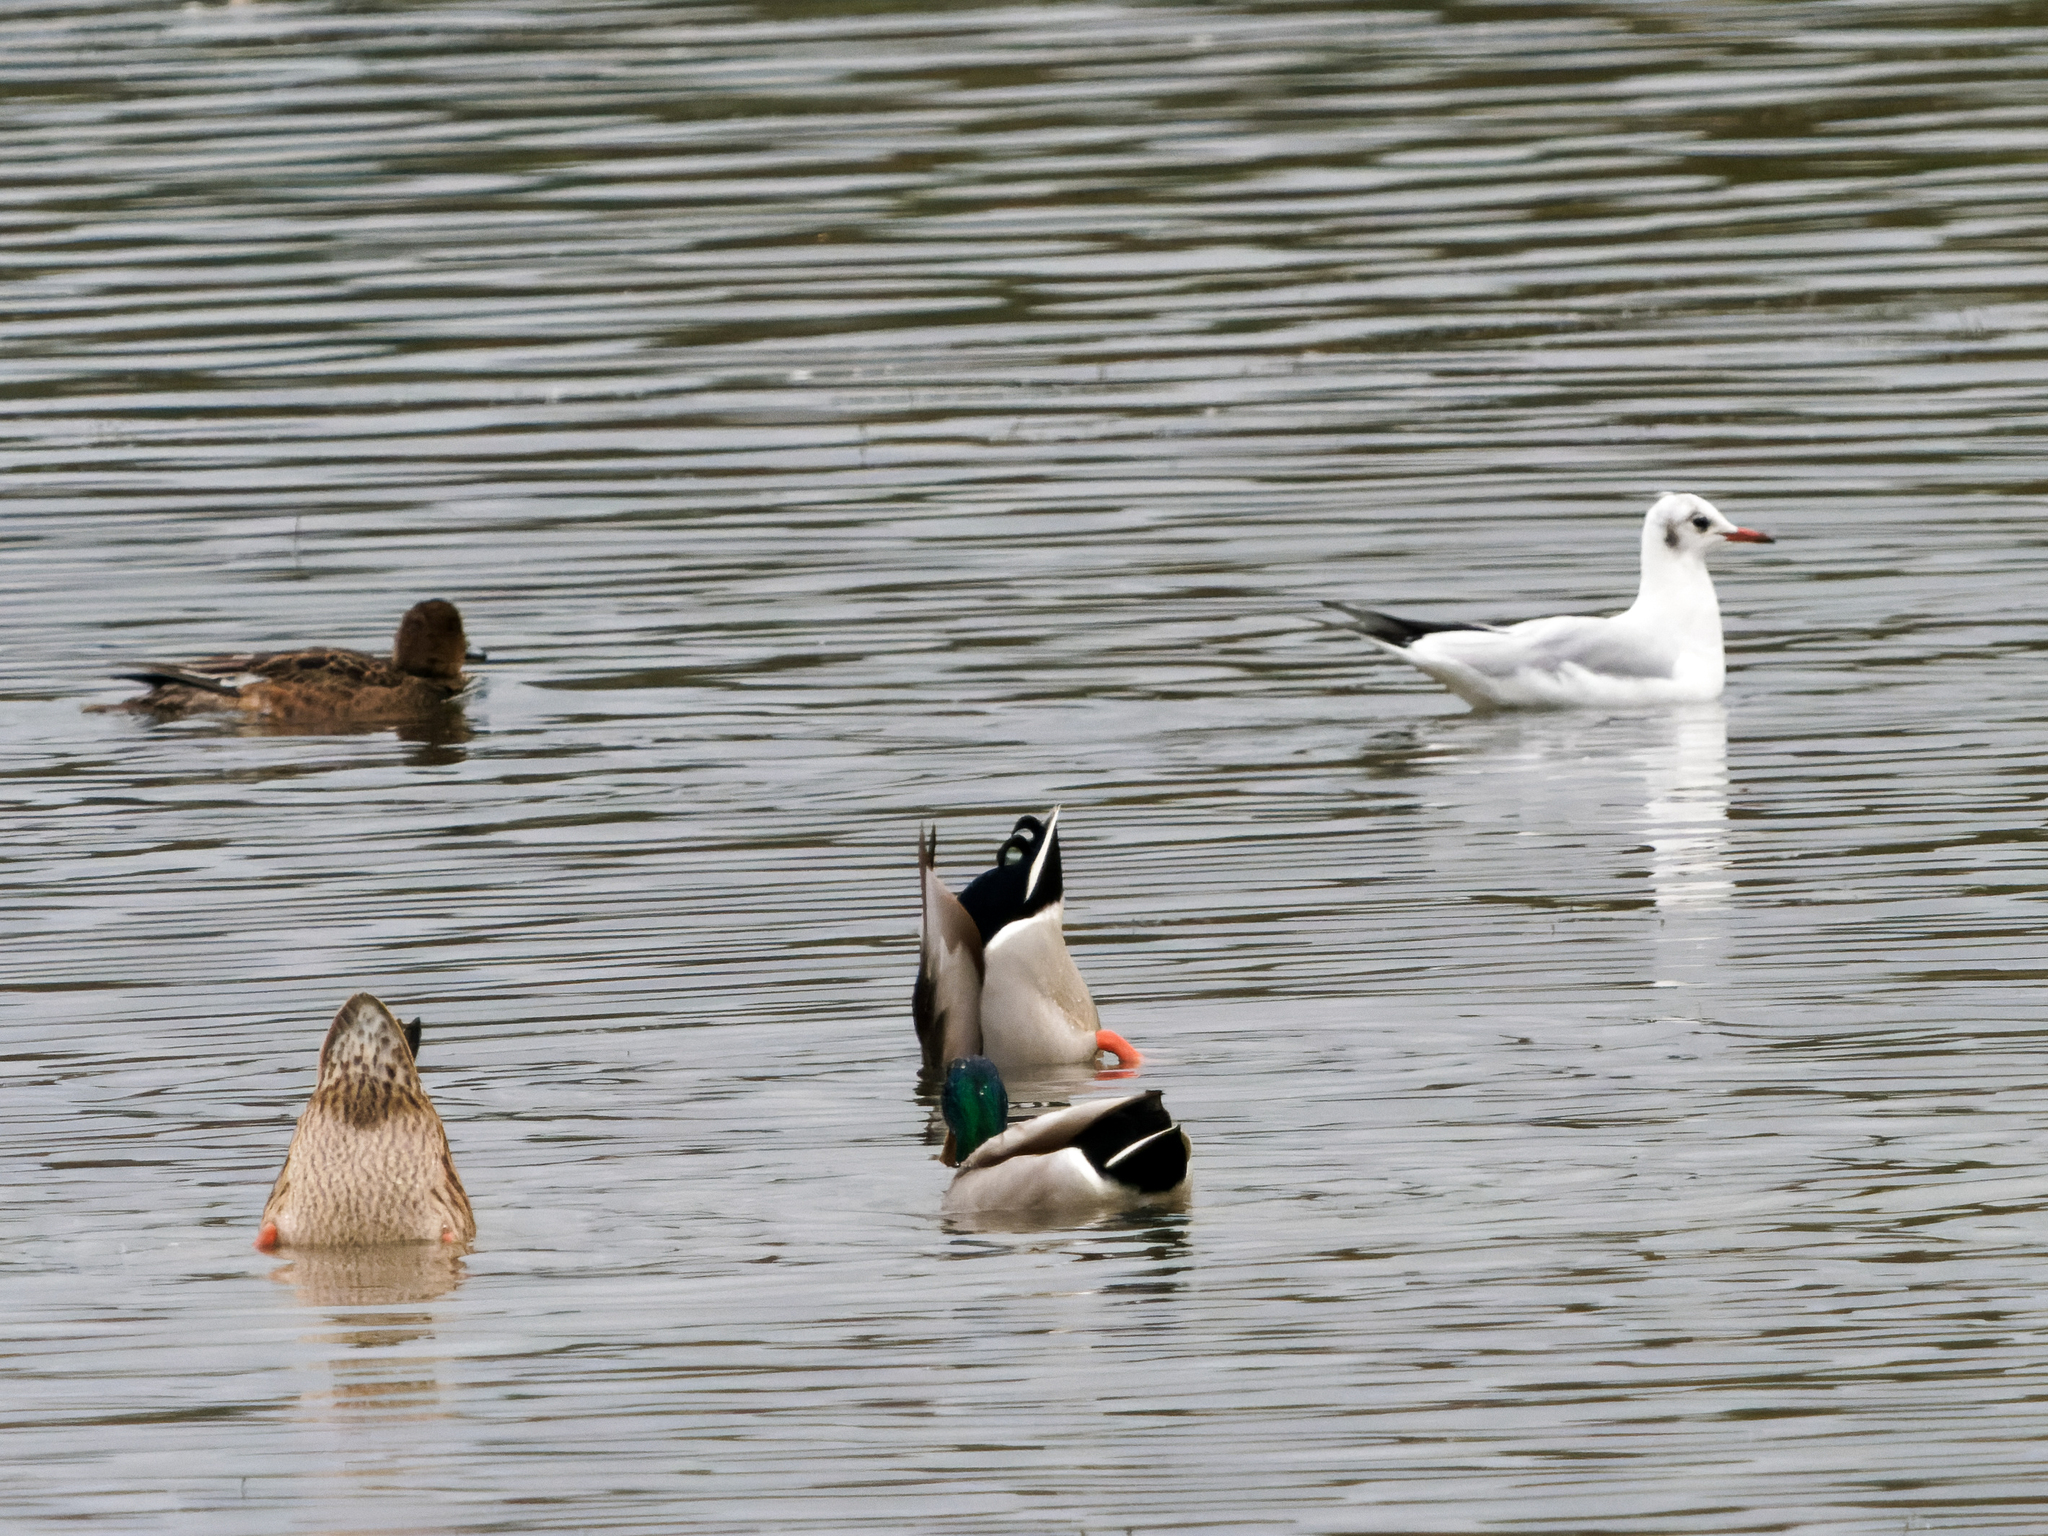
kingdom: Animalia
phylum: Chordata
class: Aves
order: Anseriformes
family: Anatidae
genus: Anas
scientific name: Anas platyrhynchos
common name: Mallard
